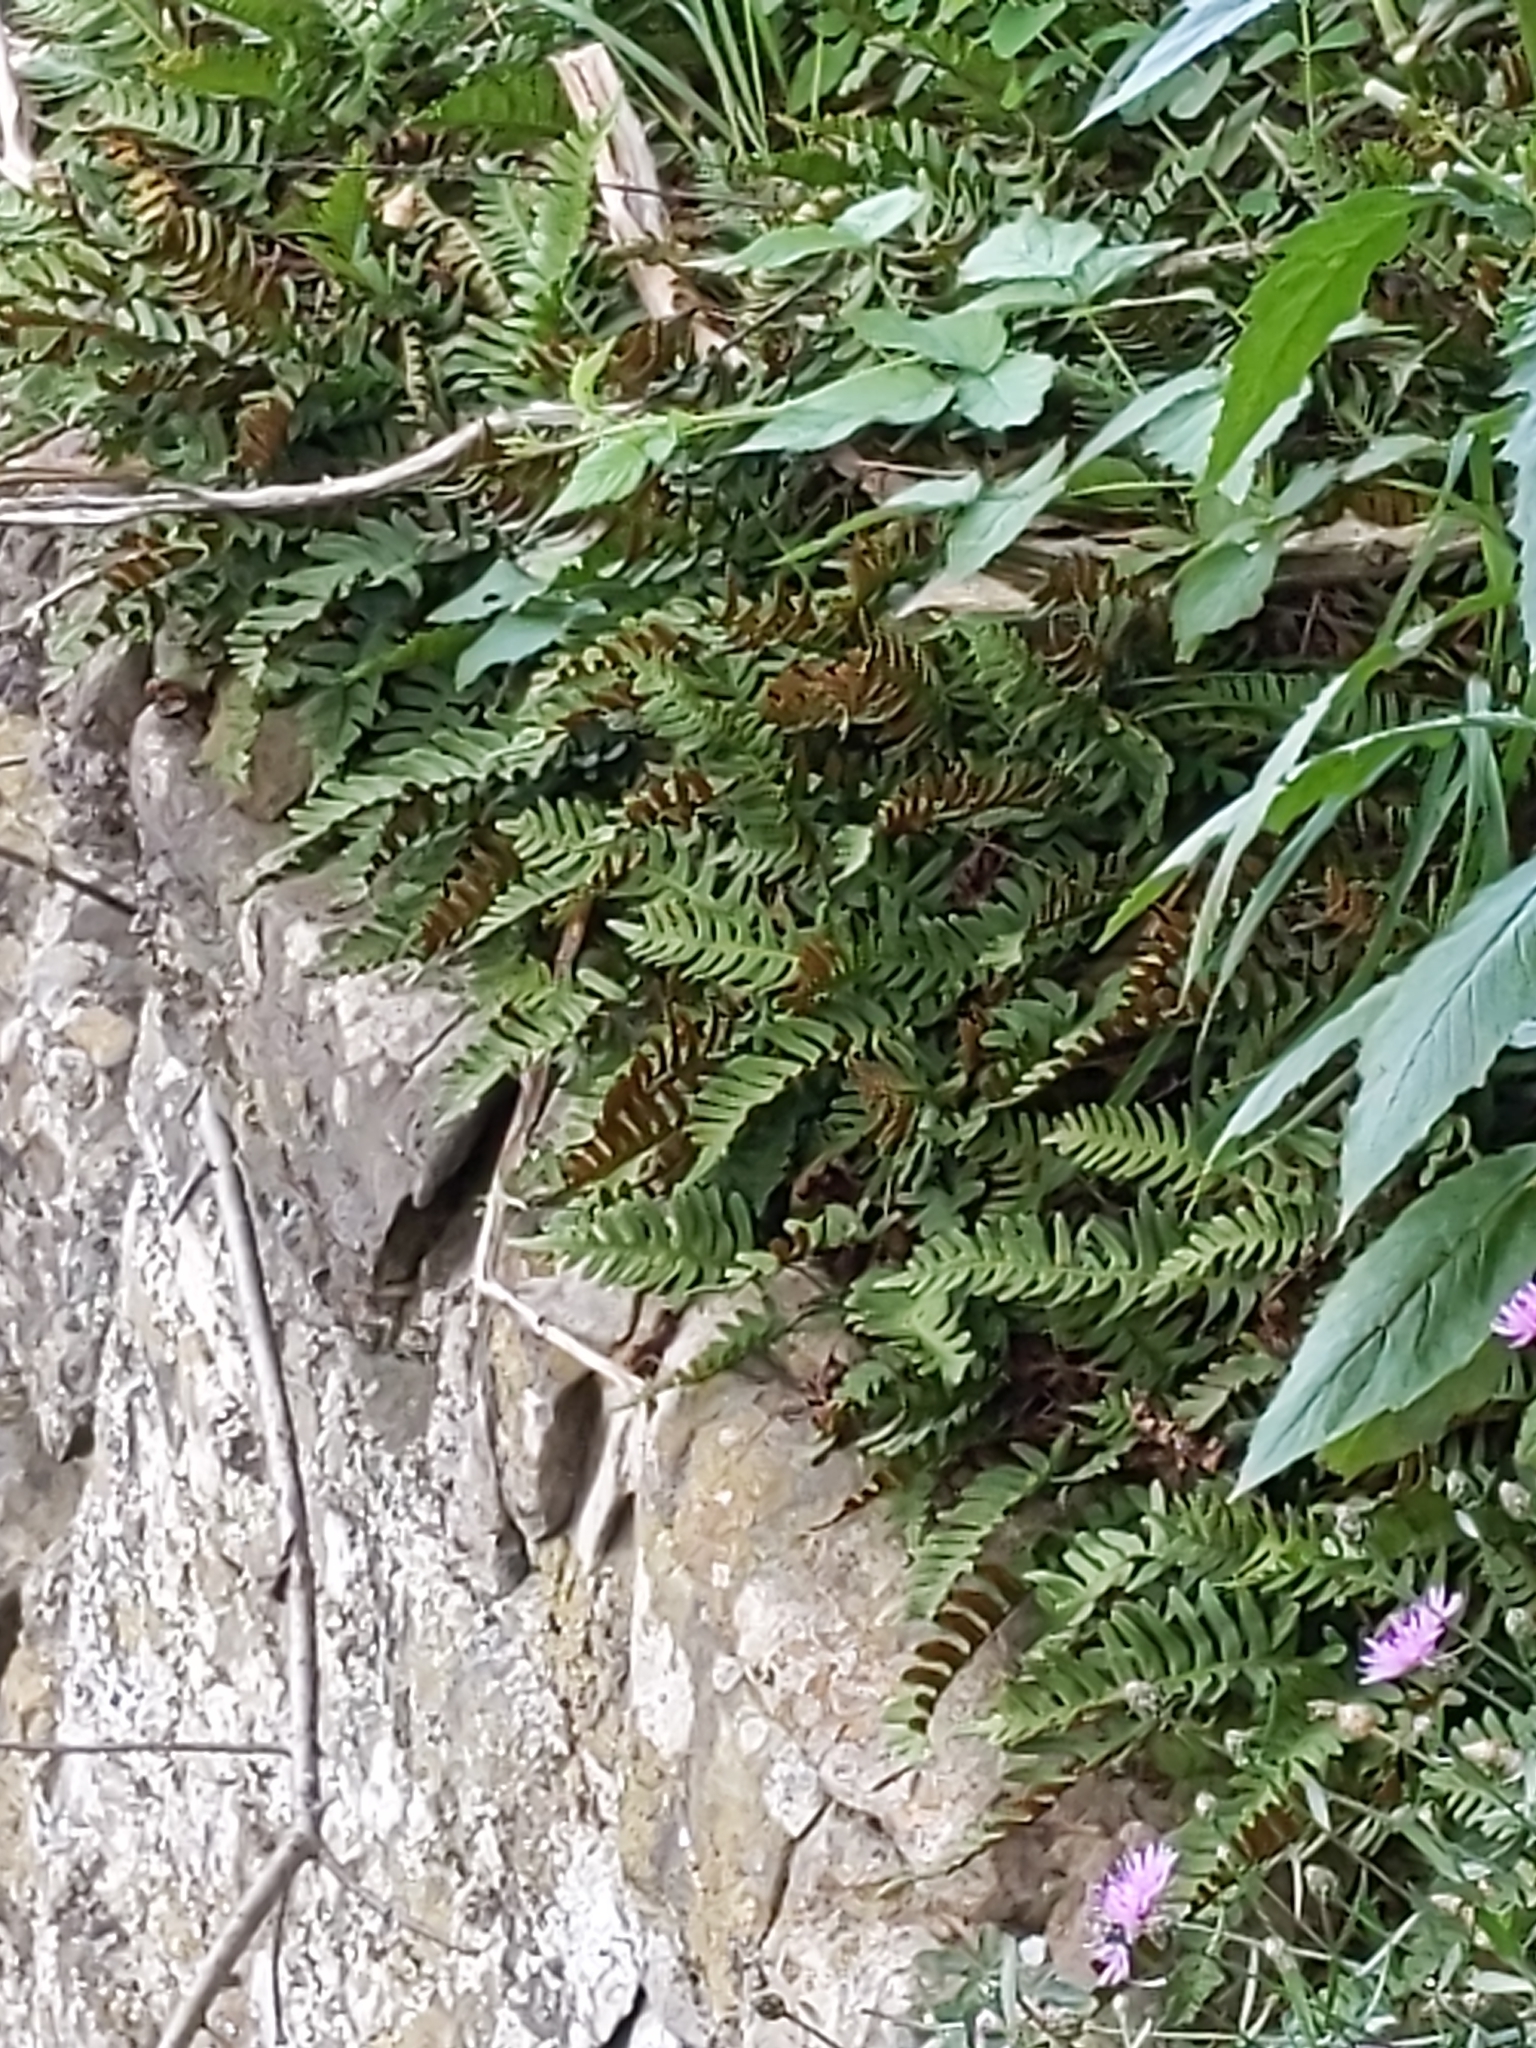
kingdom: Plantae
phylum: Tracheophyta
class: Polypodiopsida
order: Polypodiales
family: Polypodiaceae
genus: Polypodium
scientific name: Polypodium virginianum
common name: American wall fern
